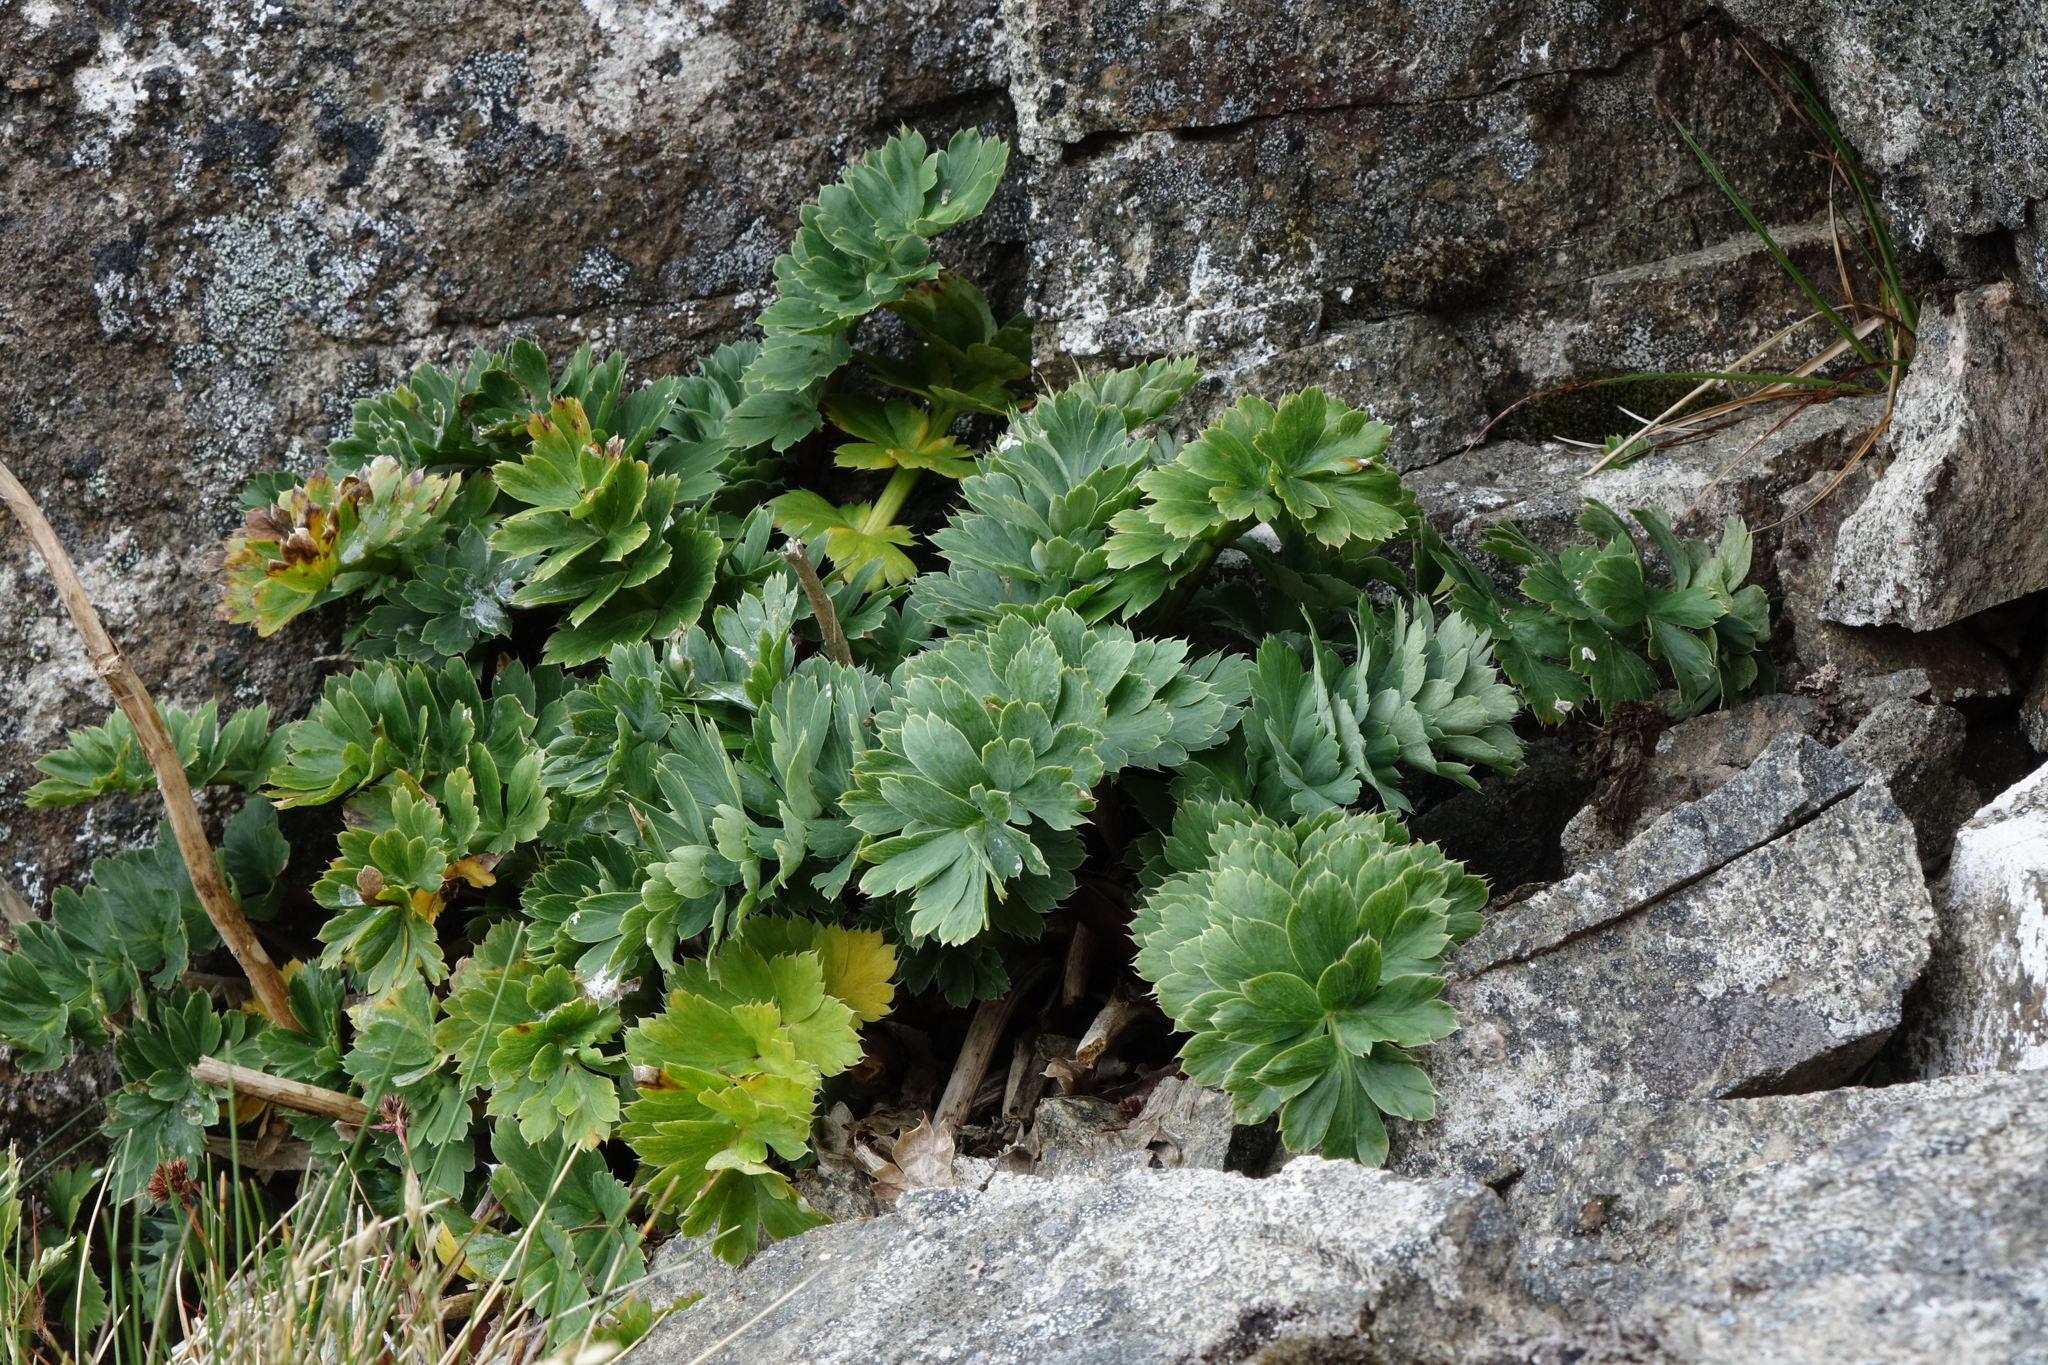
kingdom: Plantae
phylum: Tracheophyta
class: Magnoliopsida
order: Apiales
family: Apiaceae
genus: Anisotome
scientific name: Anisotome pilifera
